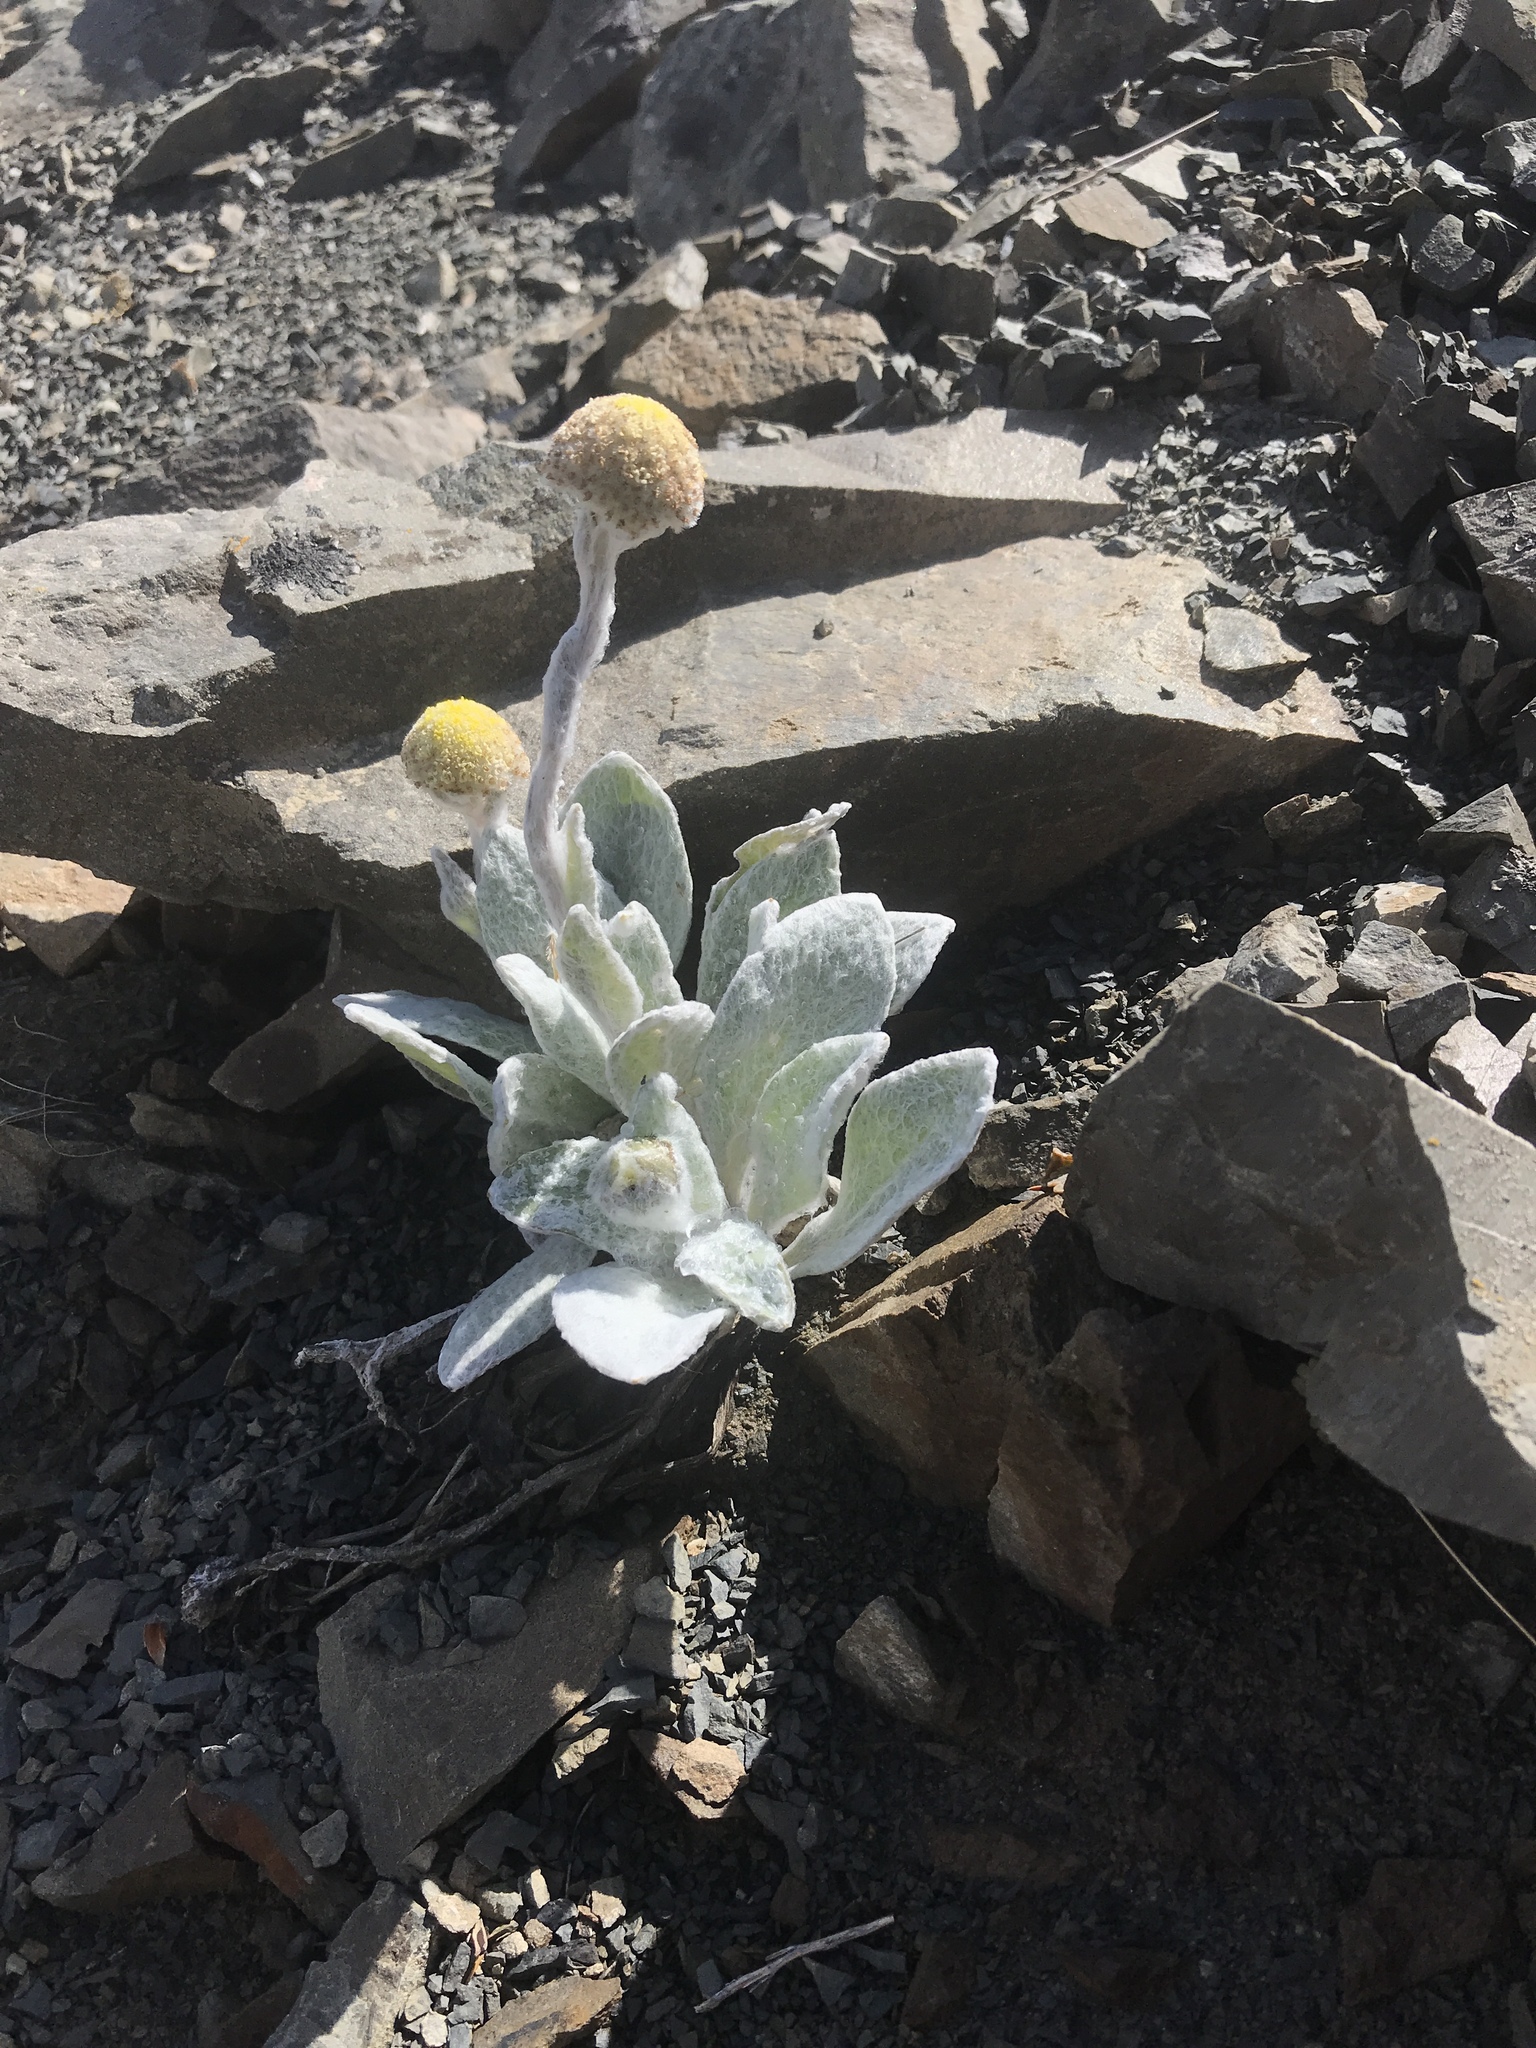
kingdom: Plantae
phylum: Tracheophyta
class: Magnoliopsida
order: Asterales
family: Asteraceae
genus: Craspedia
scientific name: Craspedia incana
